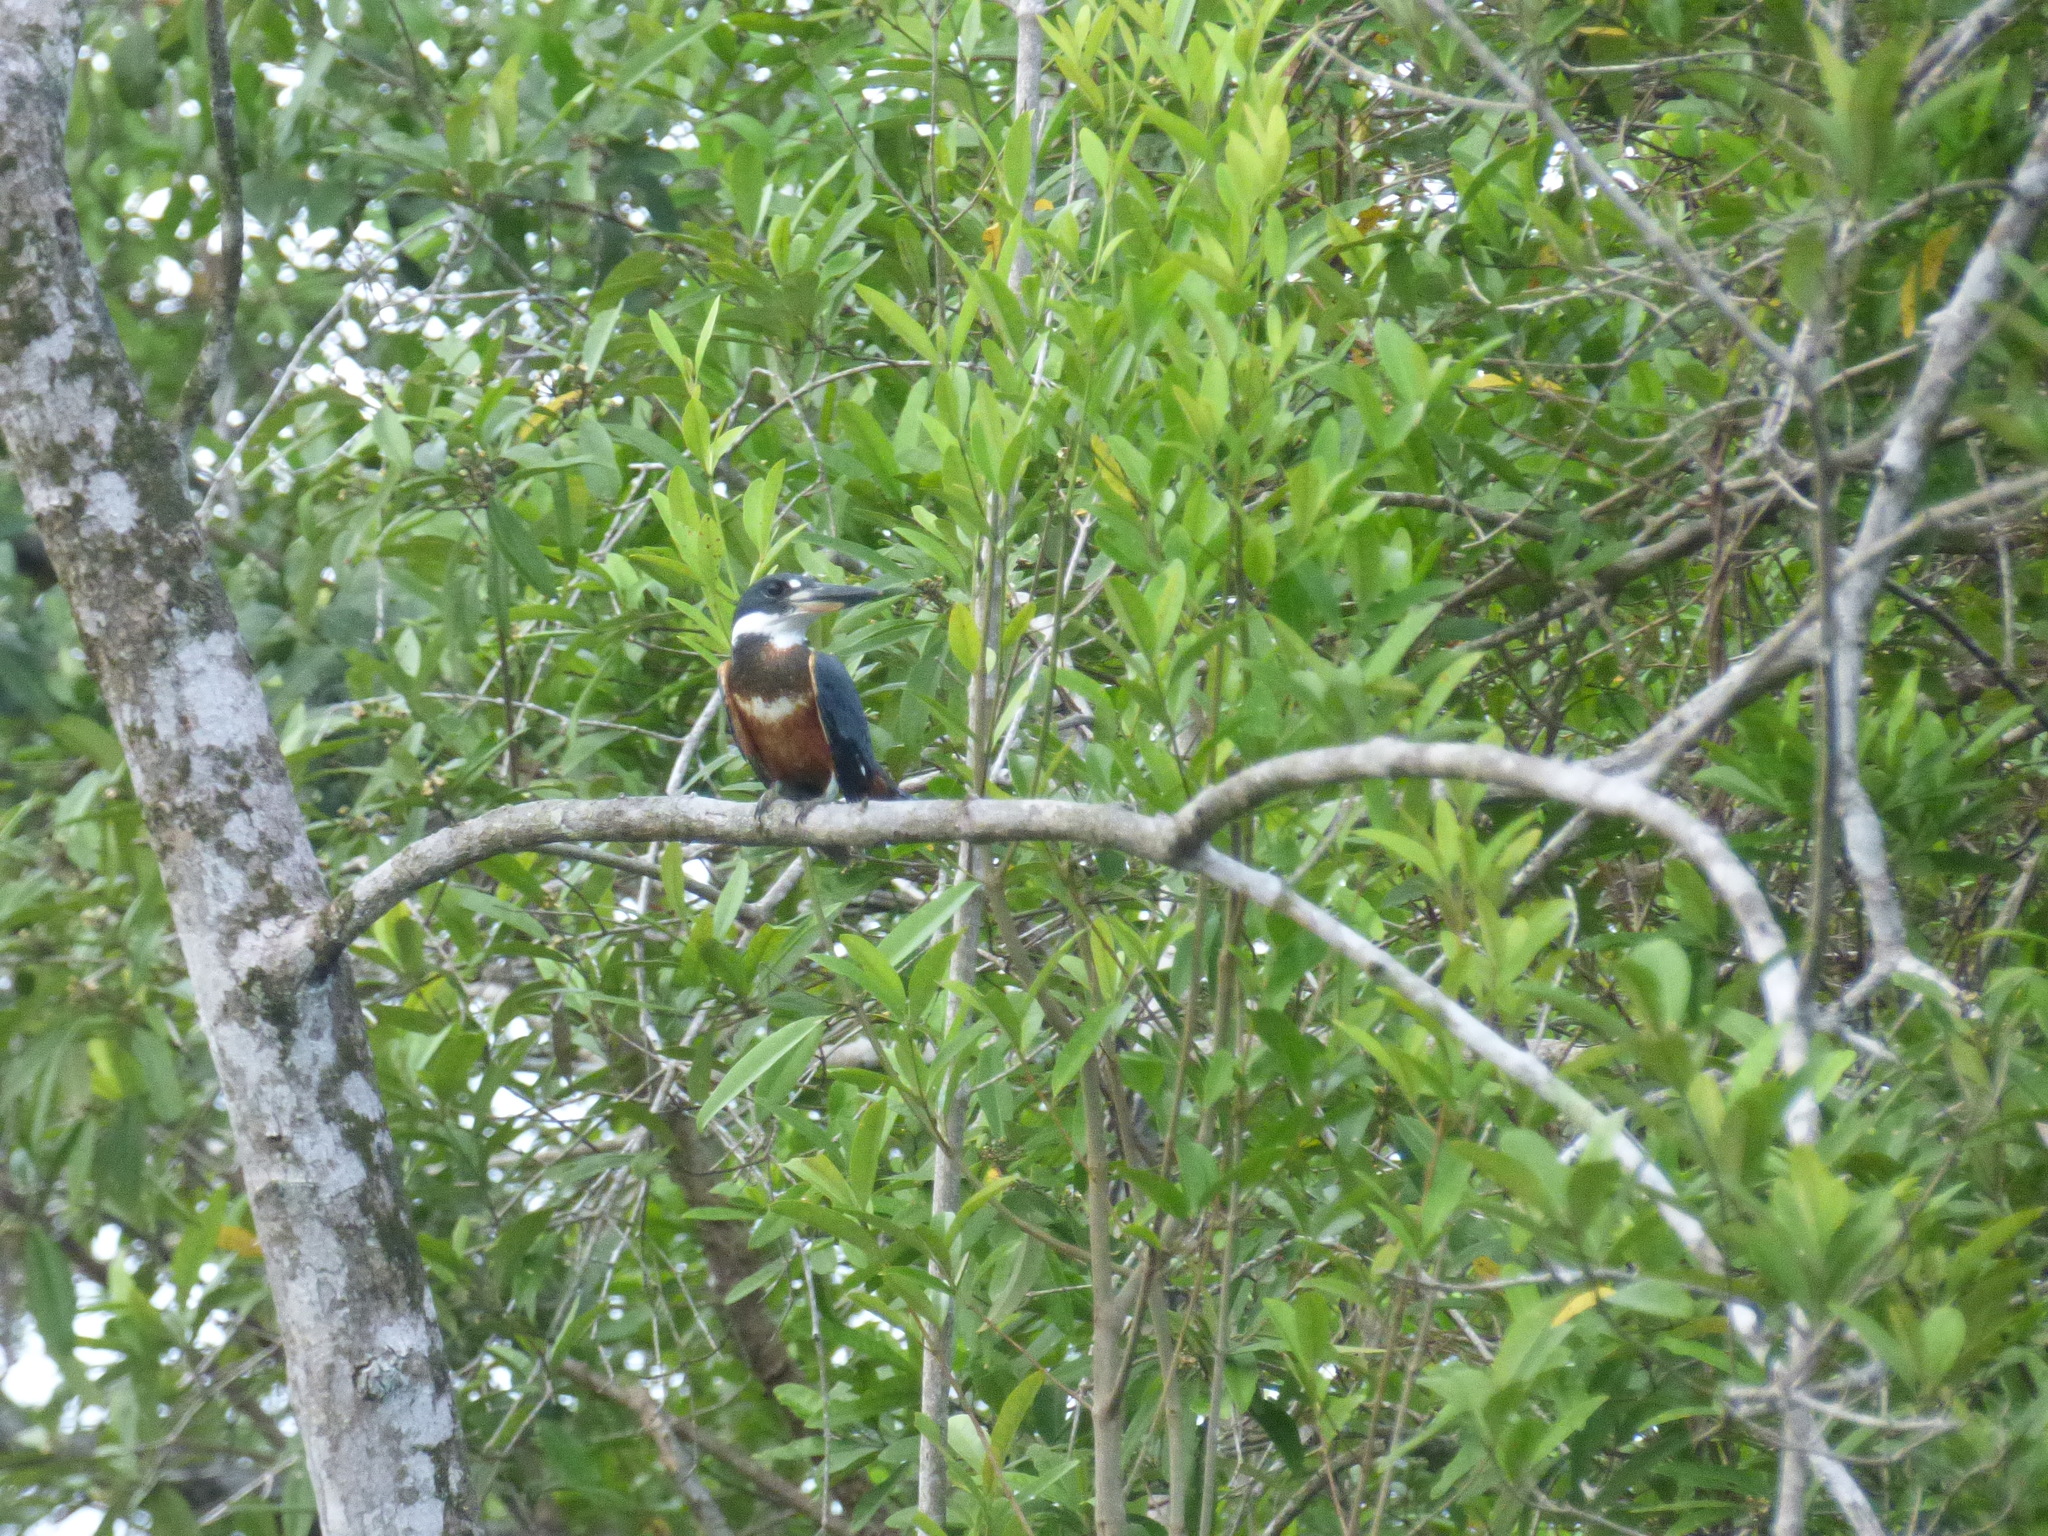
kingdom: Animalia
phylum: Chordata
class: Aves
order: Coraciiformes
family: Alcedinidae
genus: Megaceryle
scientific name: Megaceryle torquata
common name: Ringed kingfisher
